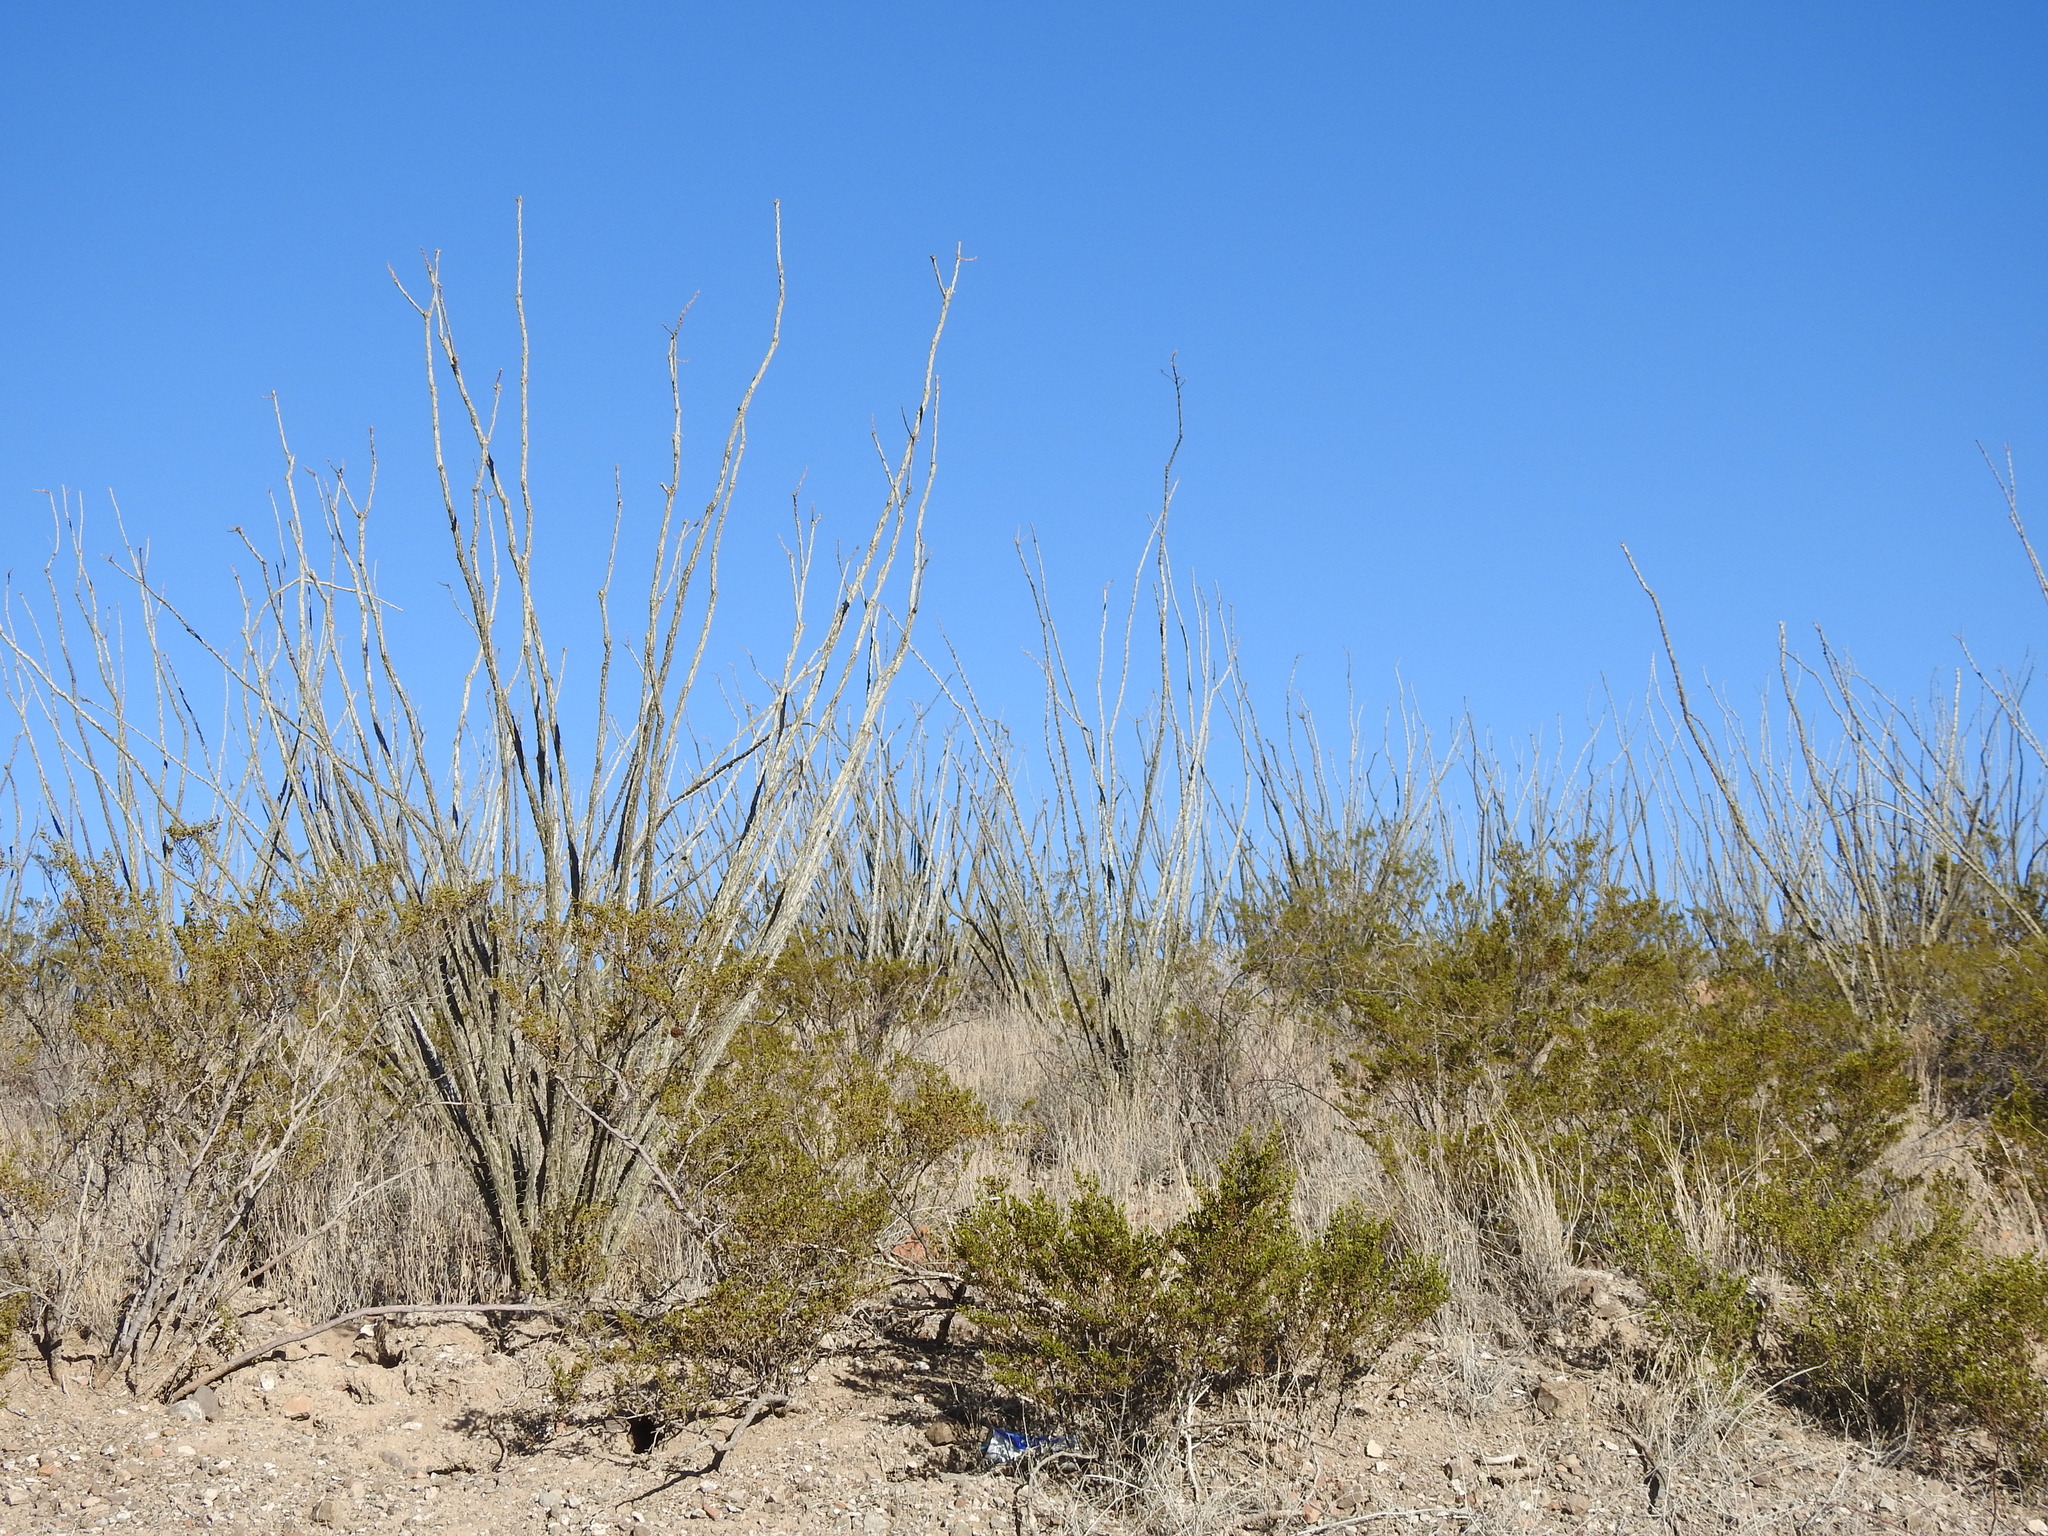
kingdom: Plantae
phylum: Tracheophyta
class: Magnoliopsida
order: Ericales
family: Fouquieriaceae
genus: Fouquieria
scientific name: Fouquieria splendens
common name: Vine-cactus
